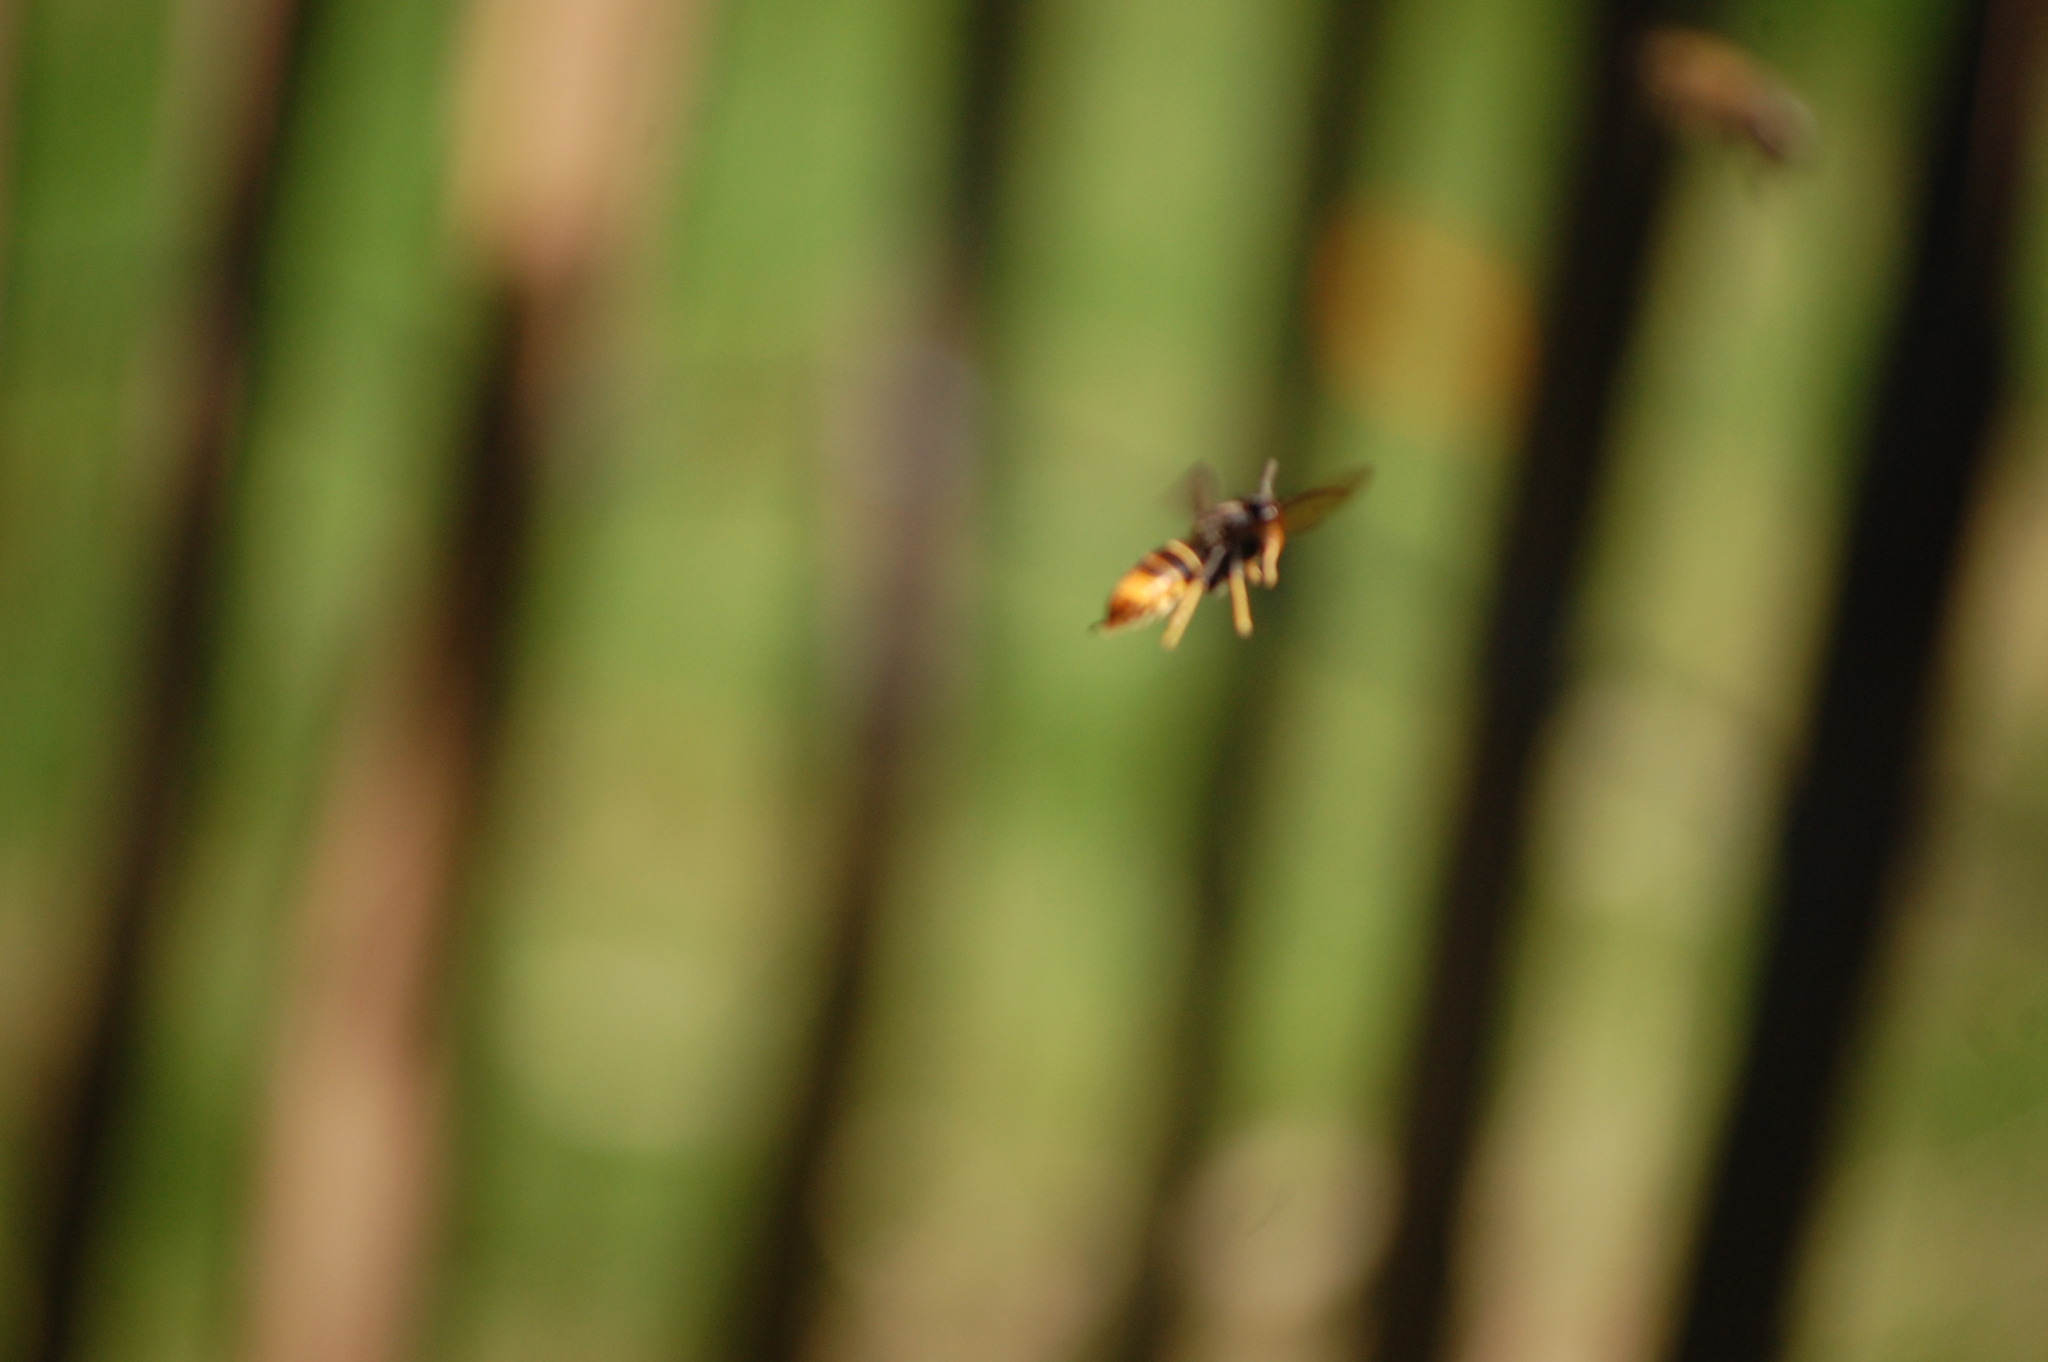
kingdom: Animalia
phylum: Arthropoda
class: Insecta
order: Hymenoptera
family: Vespidae
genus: Vespa
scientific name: Vespa velutina
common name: Asian hornet
